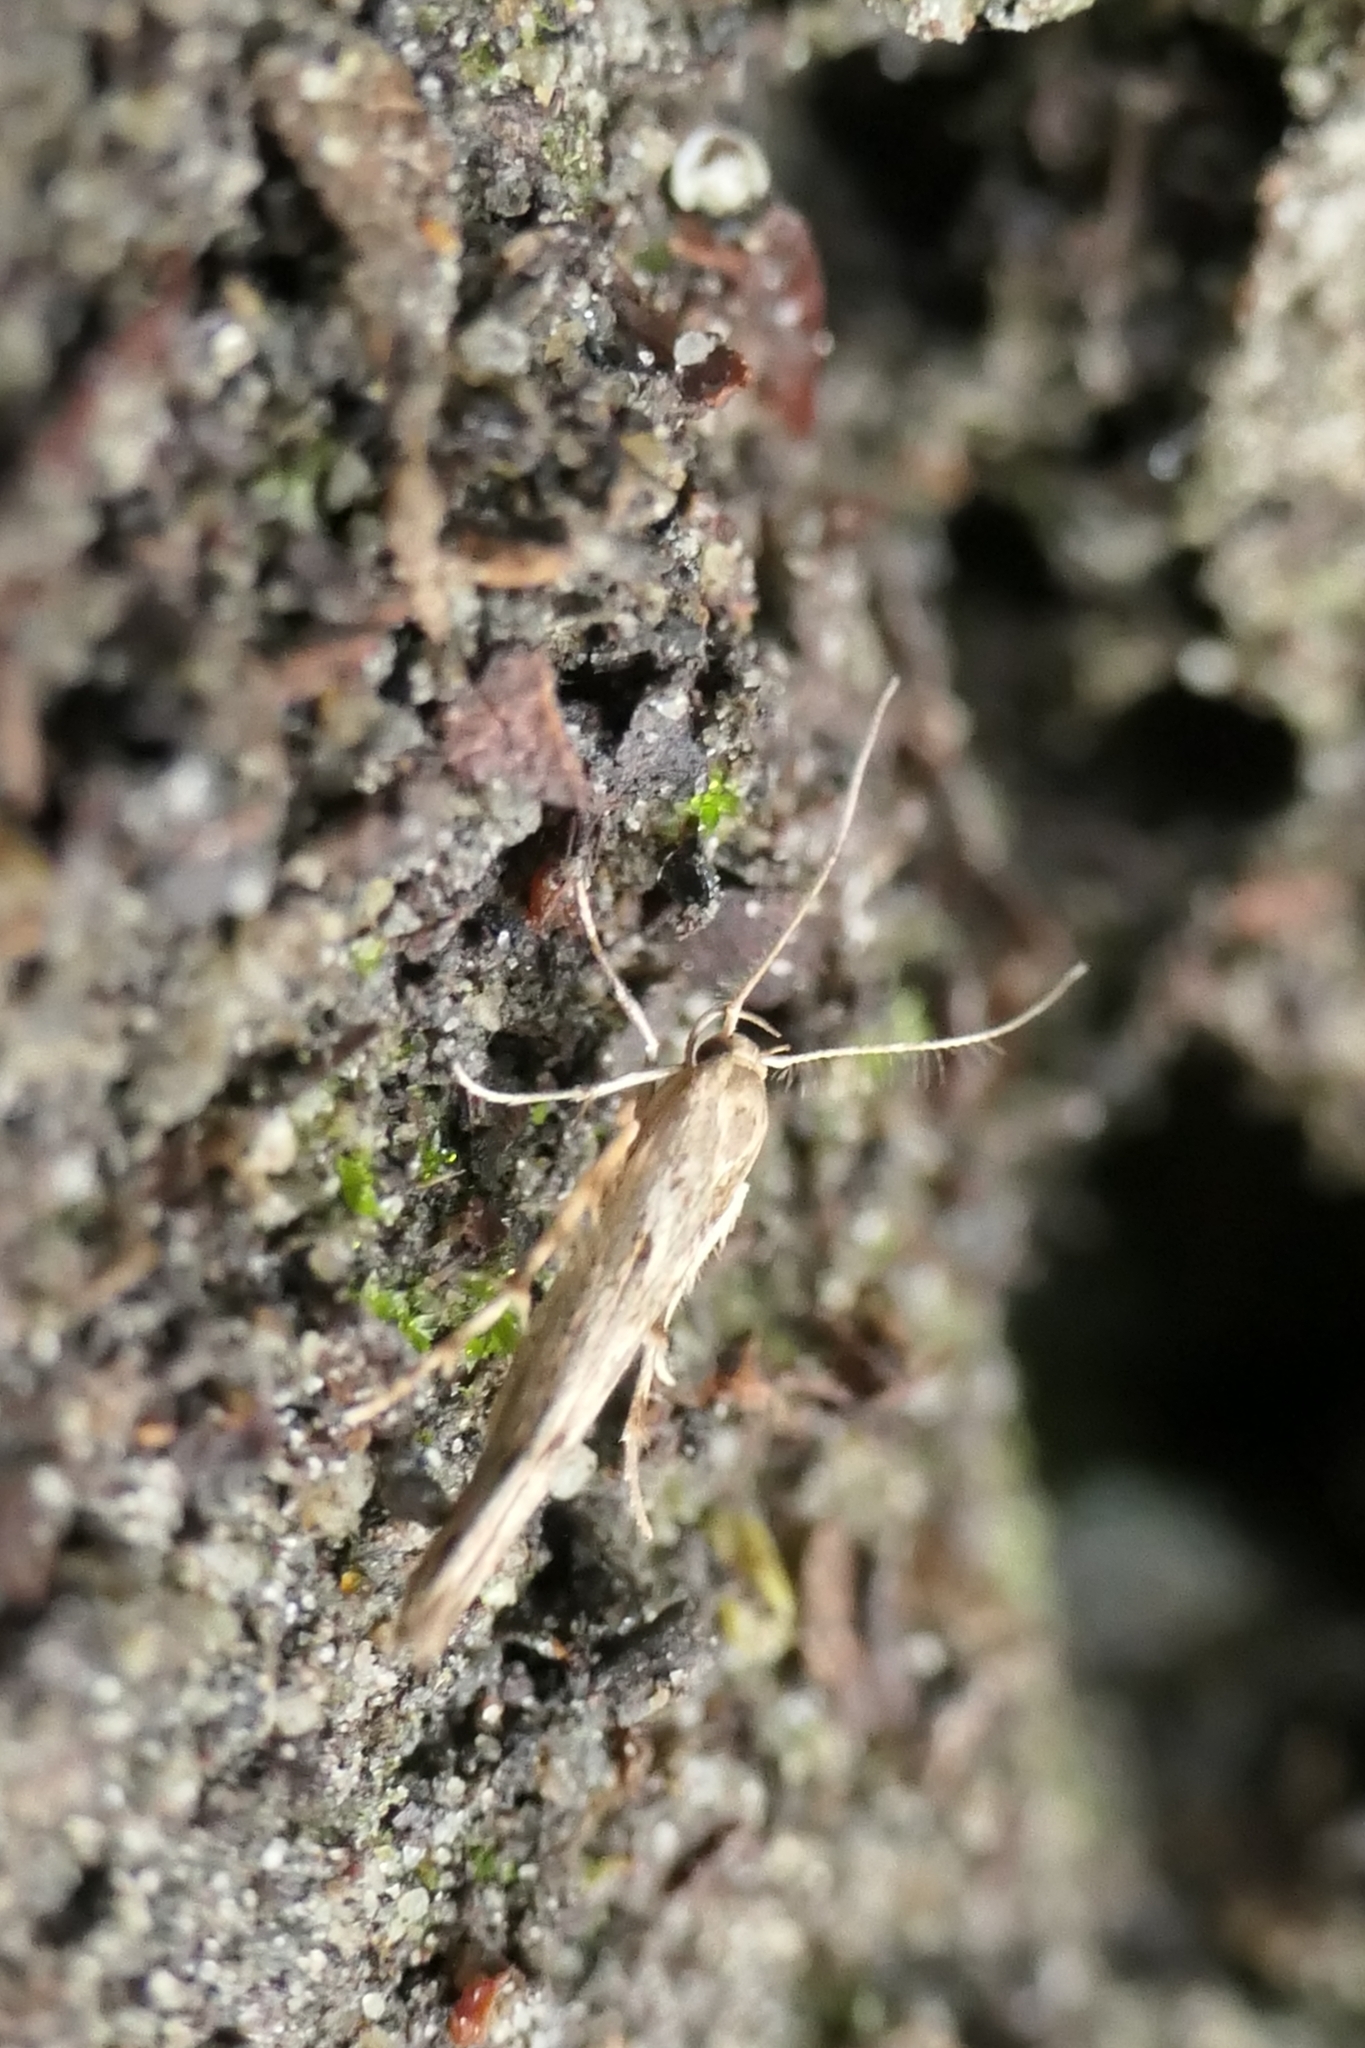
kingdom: Animalia
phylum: Arthropoda
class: Insecta
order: Lepidoptera
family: Stathmopodidae
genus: Stathmopoda
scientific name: Stathmopoda plumbiflua
